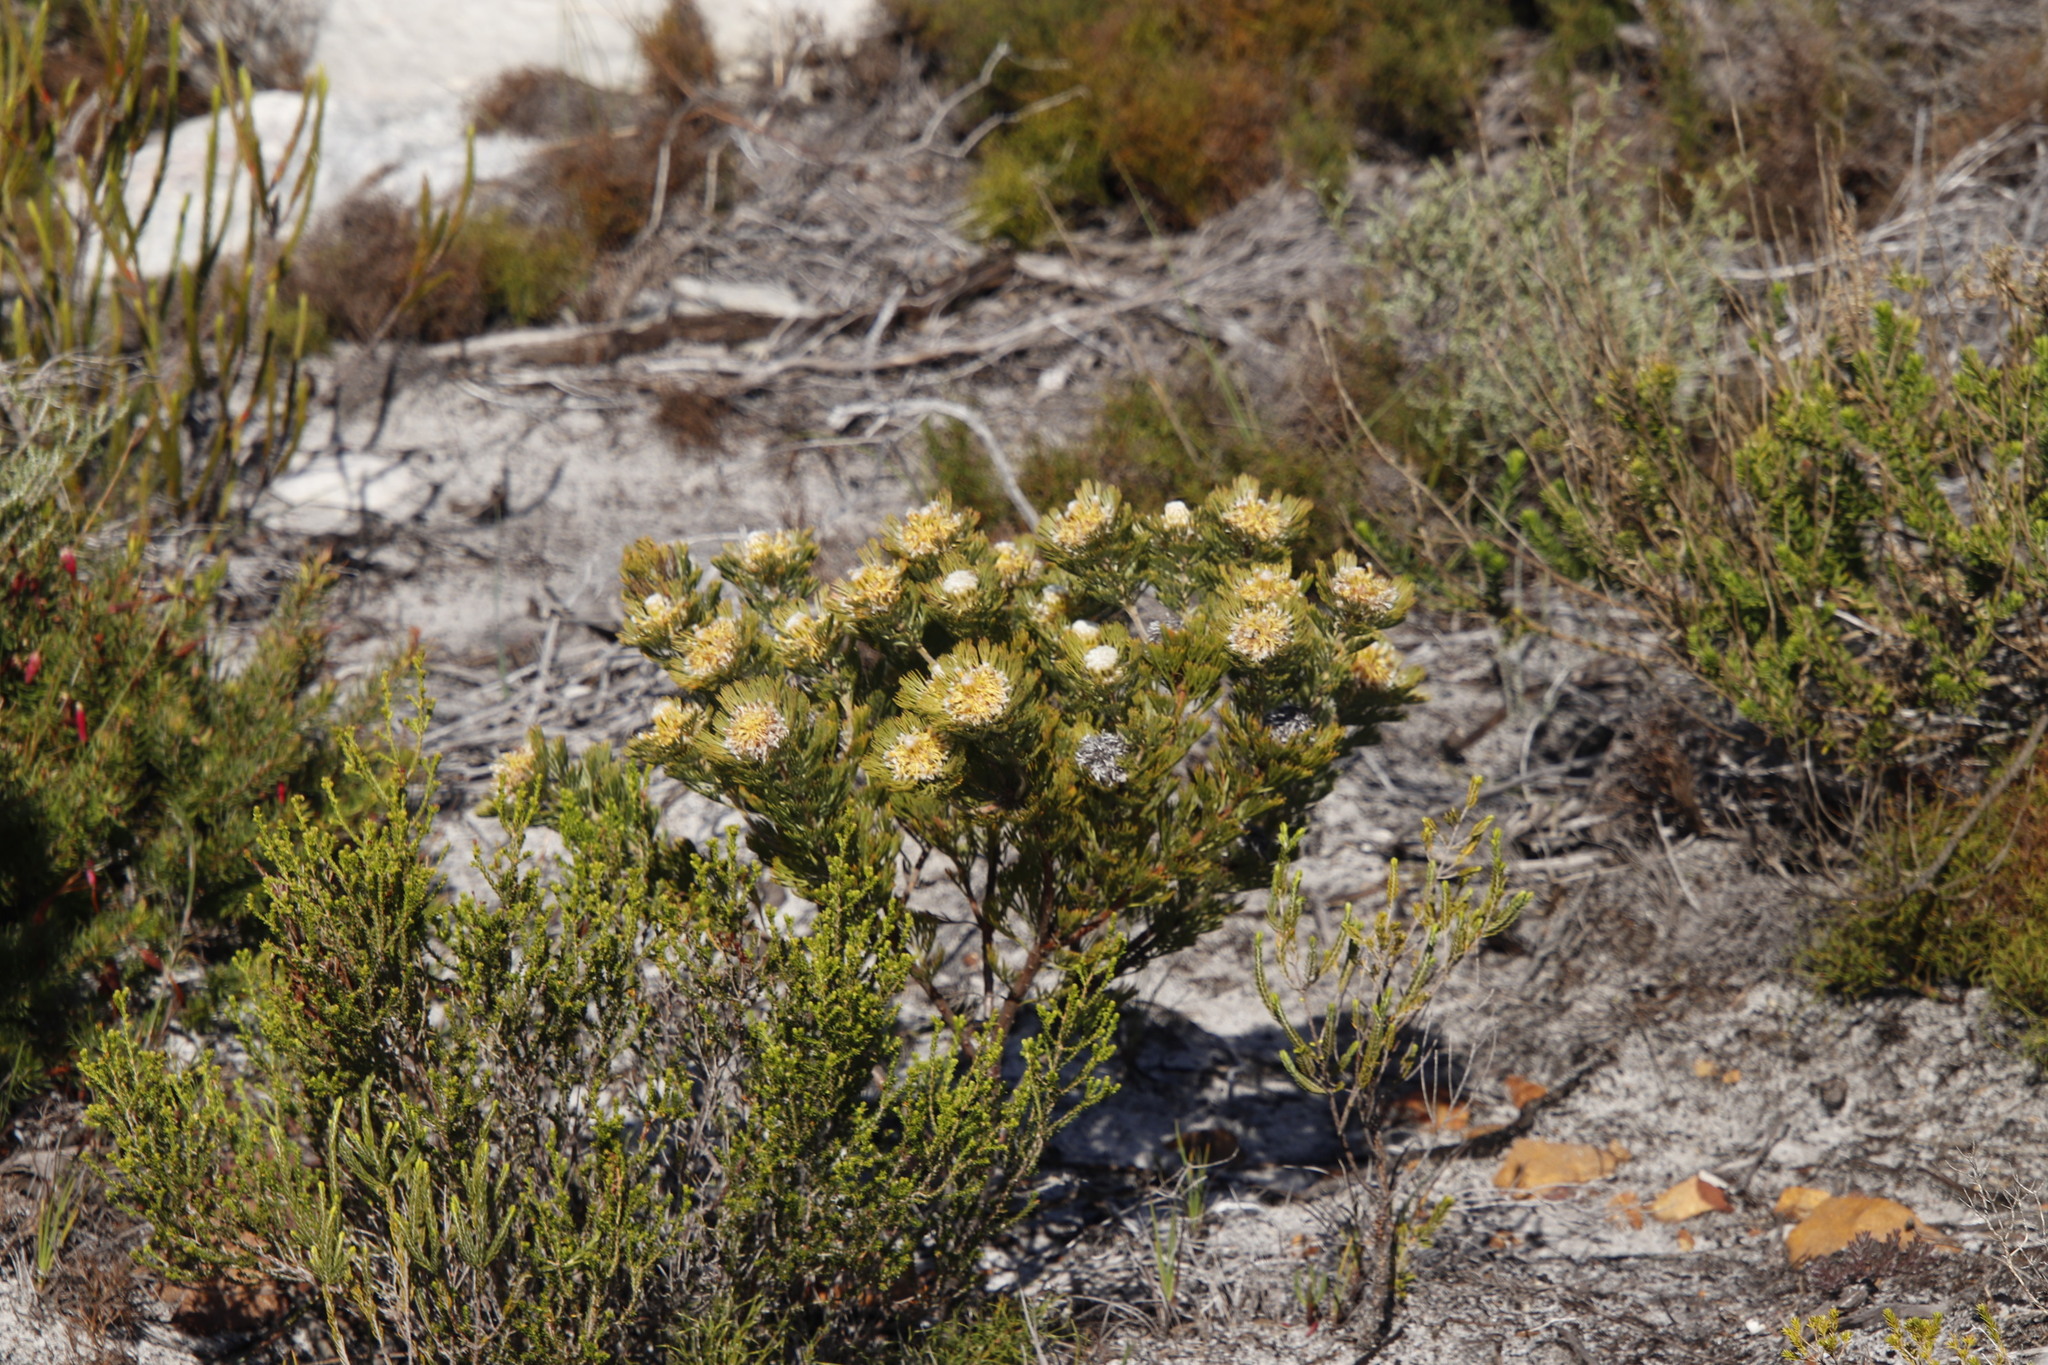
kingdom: Plantae
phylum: Tracheophyta
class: Magnoliopsida
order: Proteales
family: Proteaceae
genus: Serruria
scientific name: Serruria villosa
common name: Golden spiderhead
